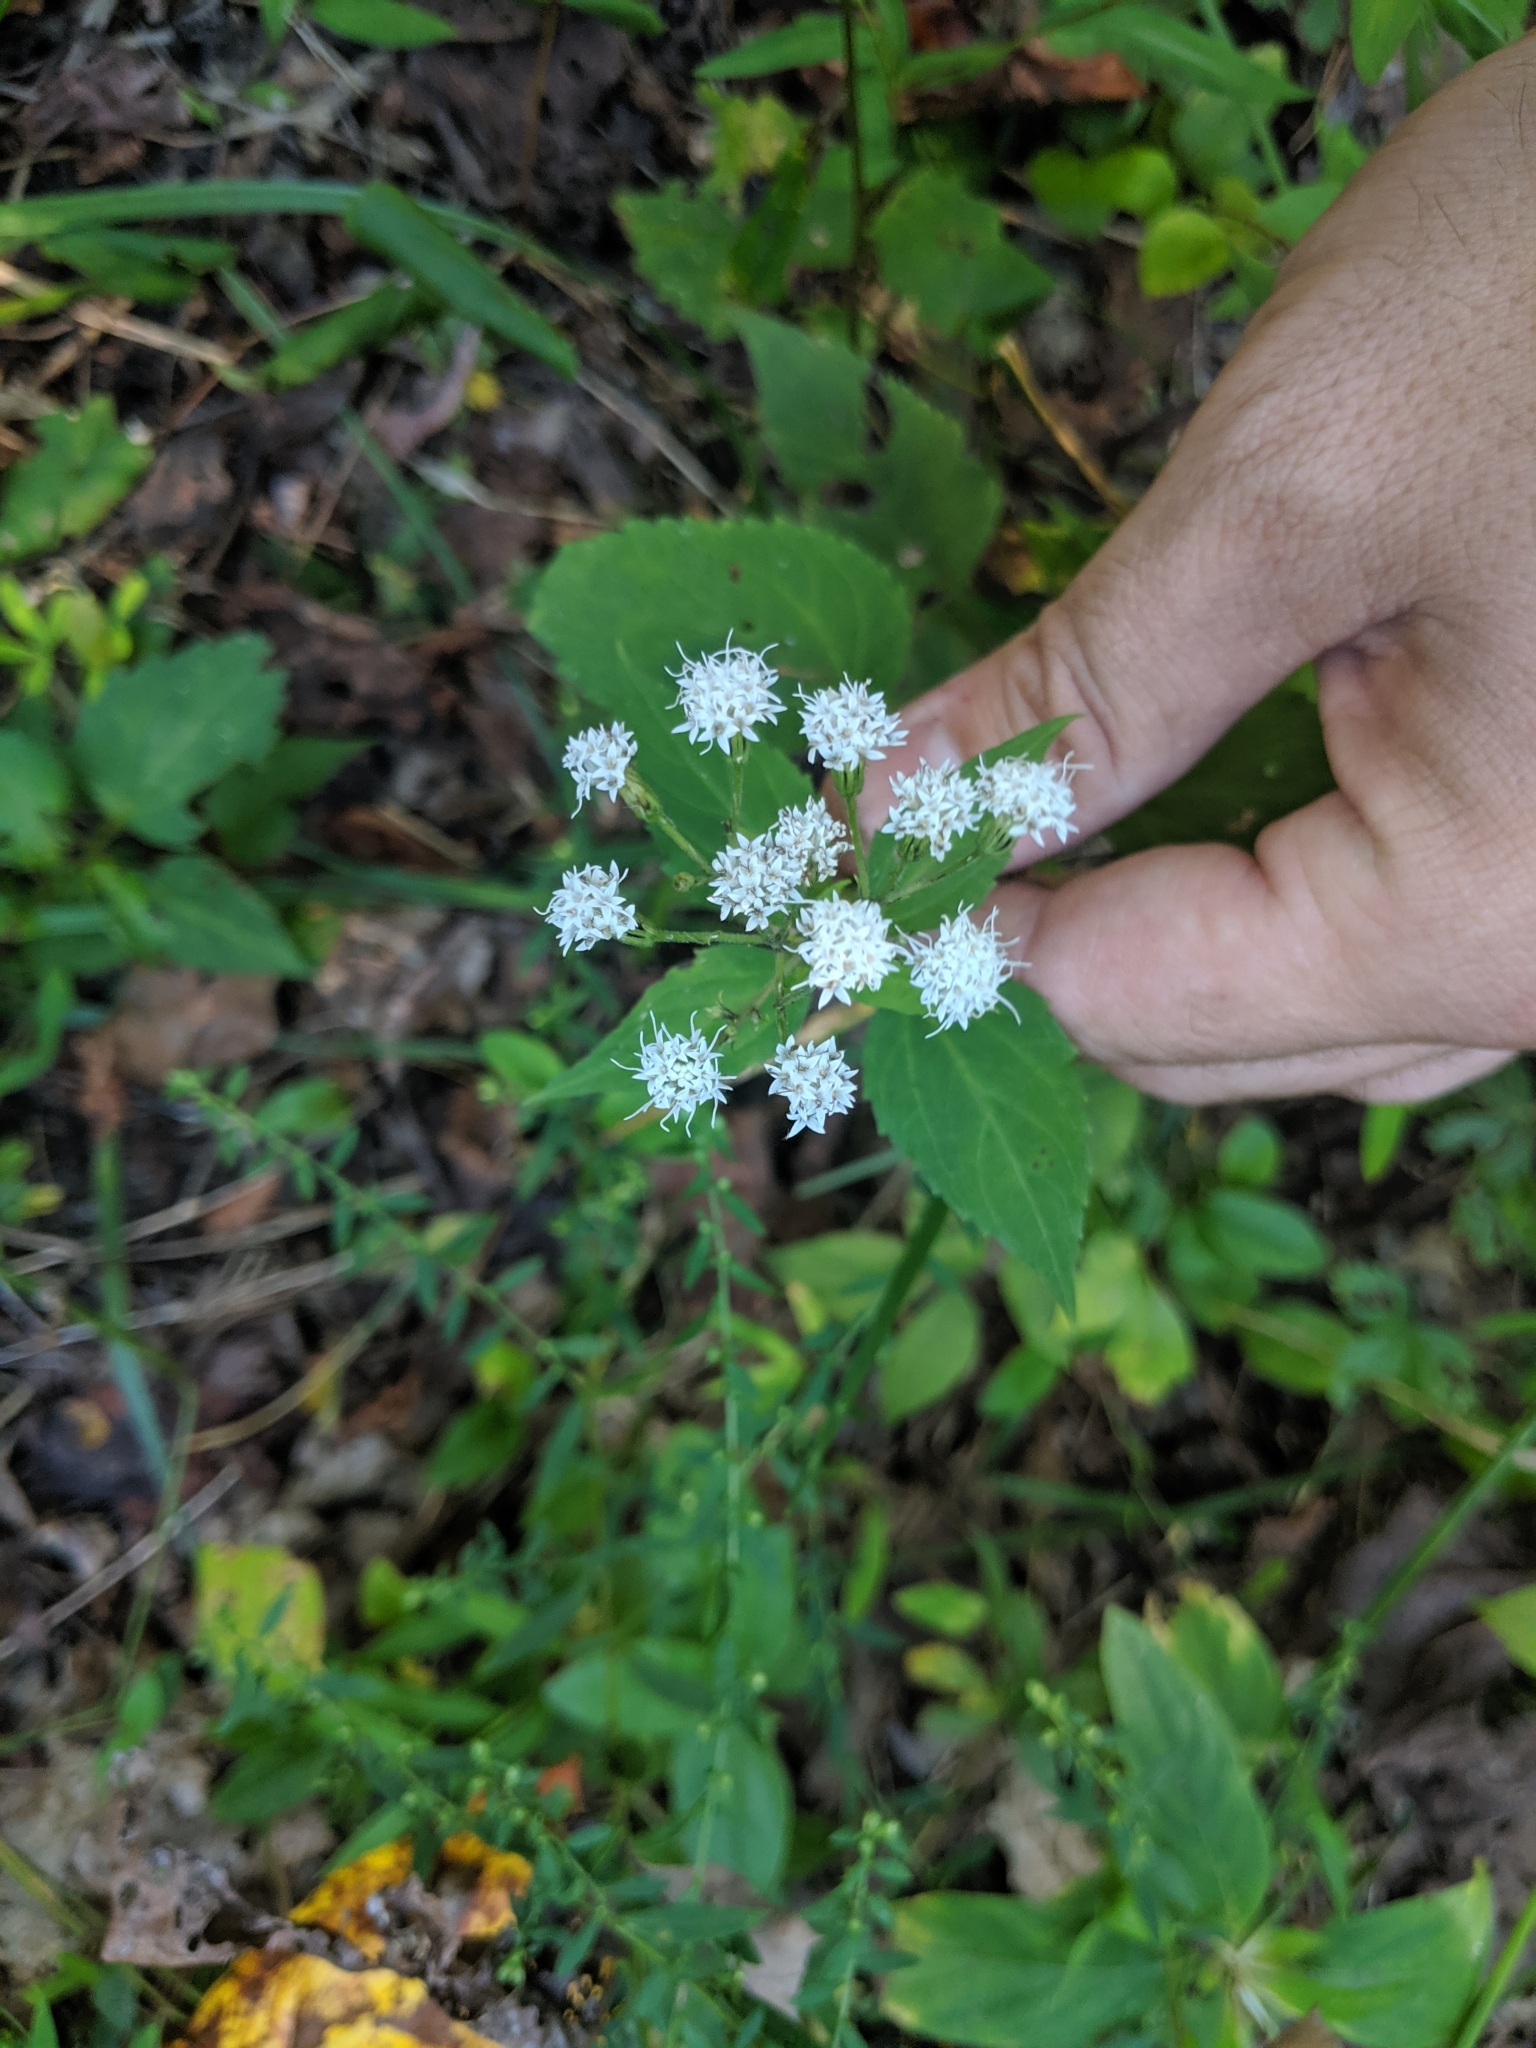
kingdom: Plantae
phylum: Tracheophyta
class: Magnoliopsida
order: Asterales
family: Asteraceae
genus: Ageratina
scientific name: Ageratina altissima
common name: White snakeroot
